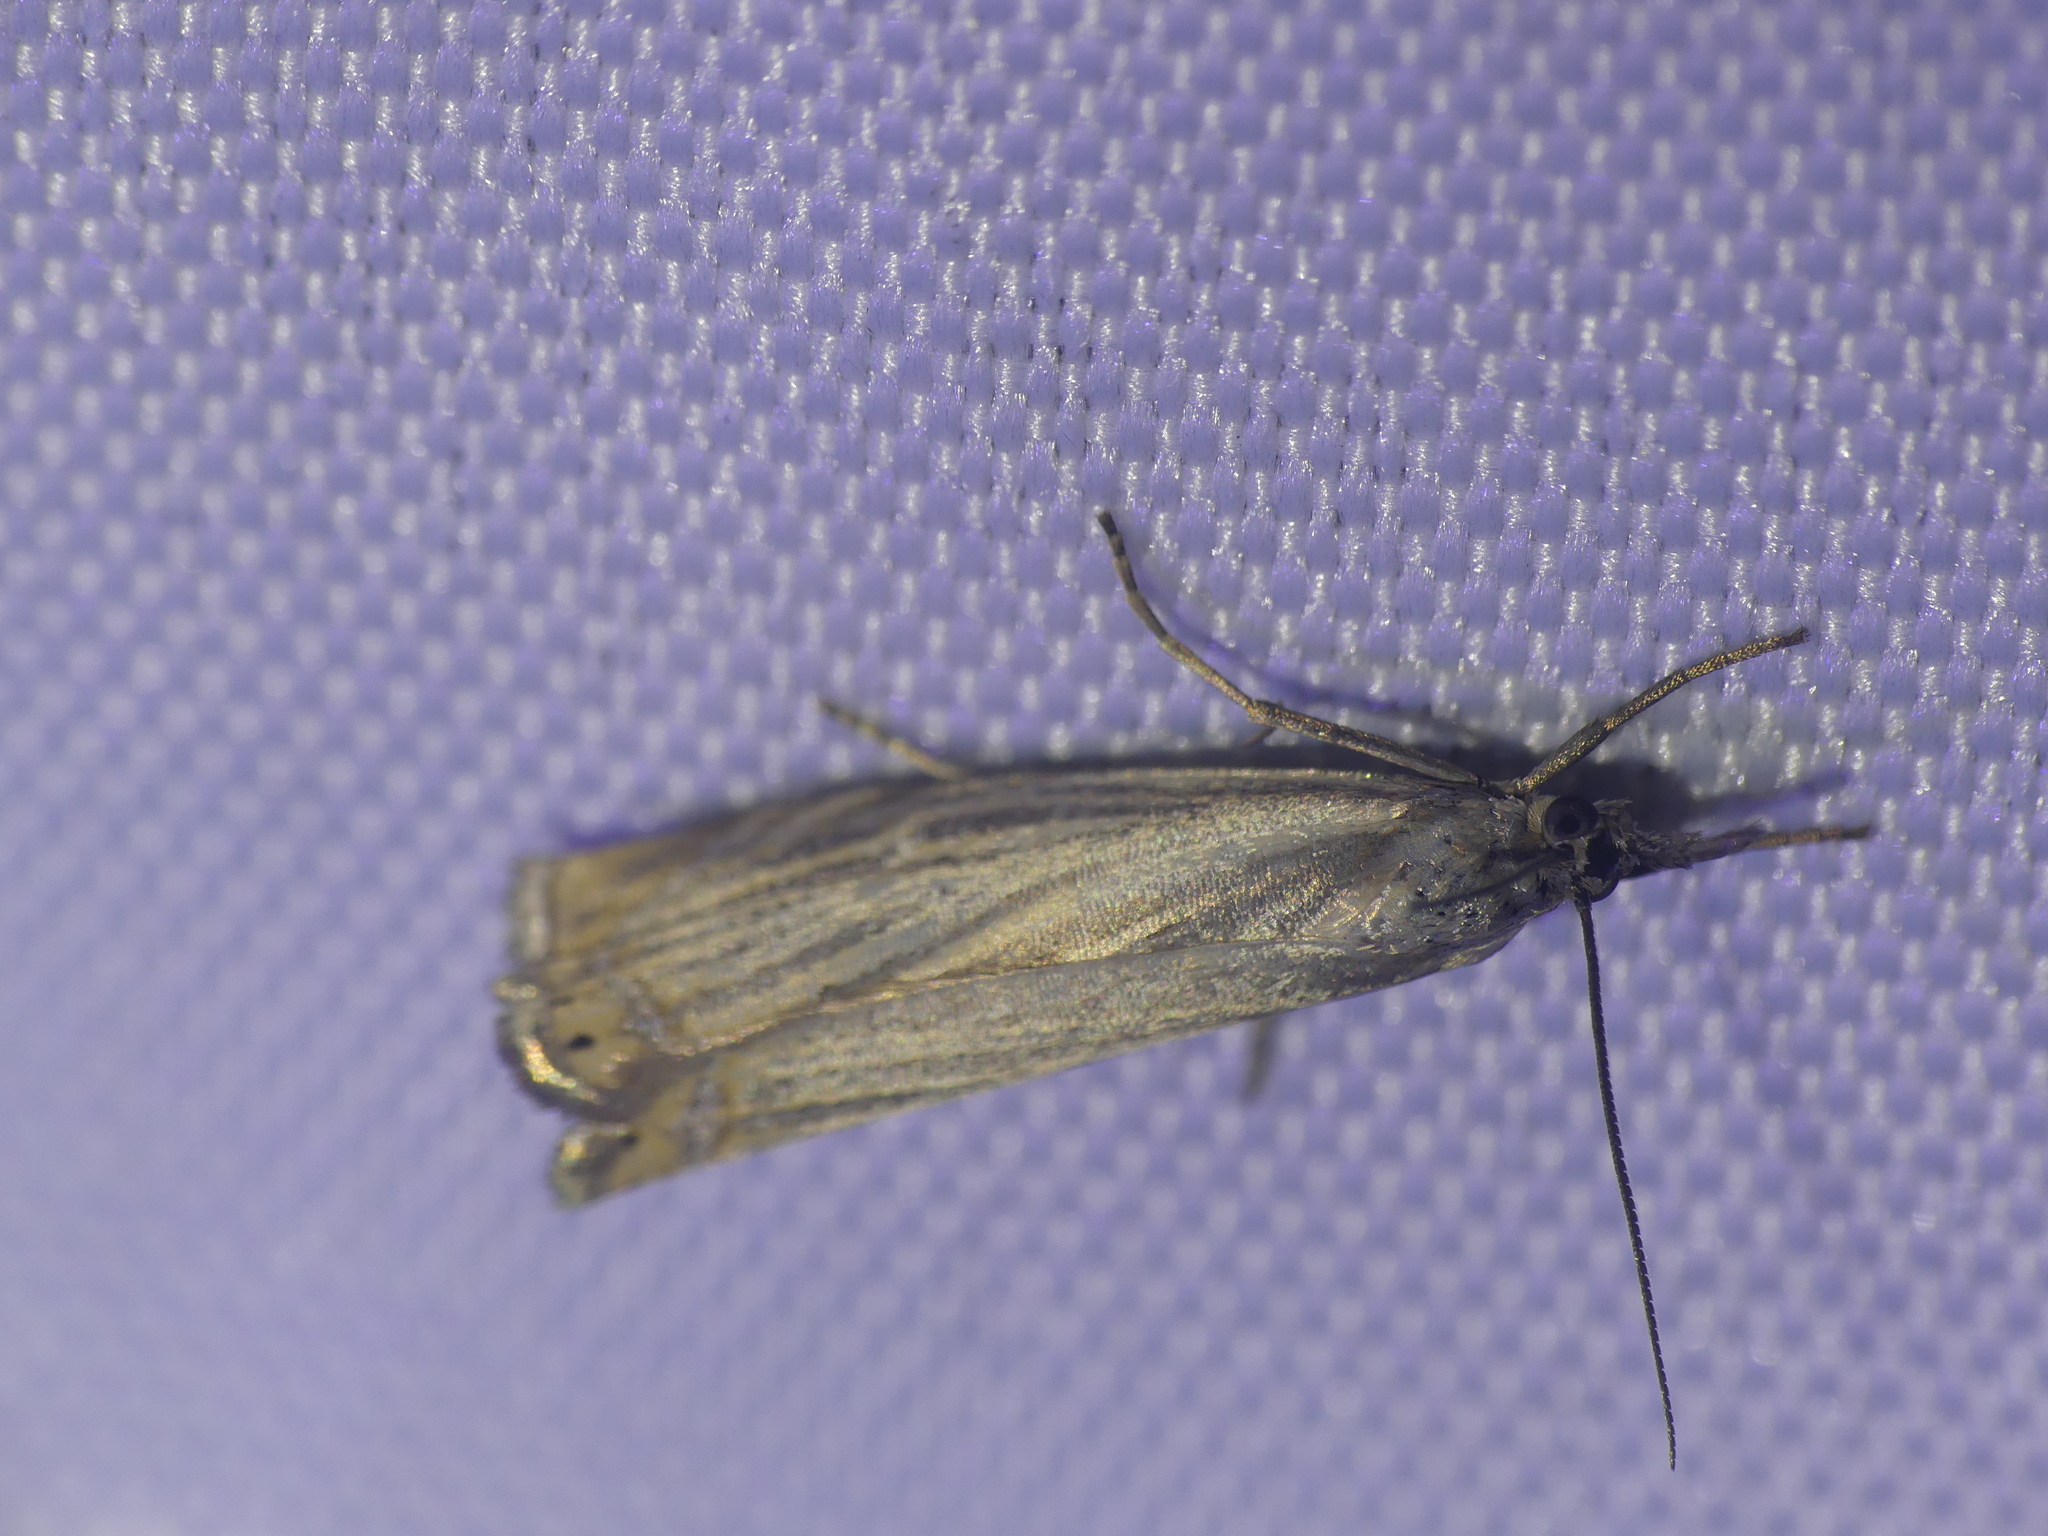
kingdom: Animalia
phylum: Arthropoda
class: Insecta
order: Lepidoptera
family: Crambidae
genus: Chrysoteuchia
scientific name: Chrysoteuchia culmella
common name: Garden grass-veneer
